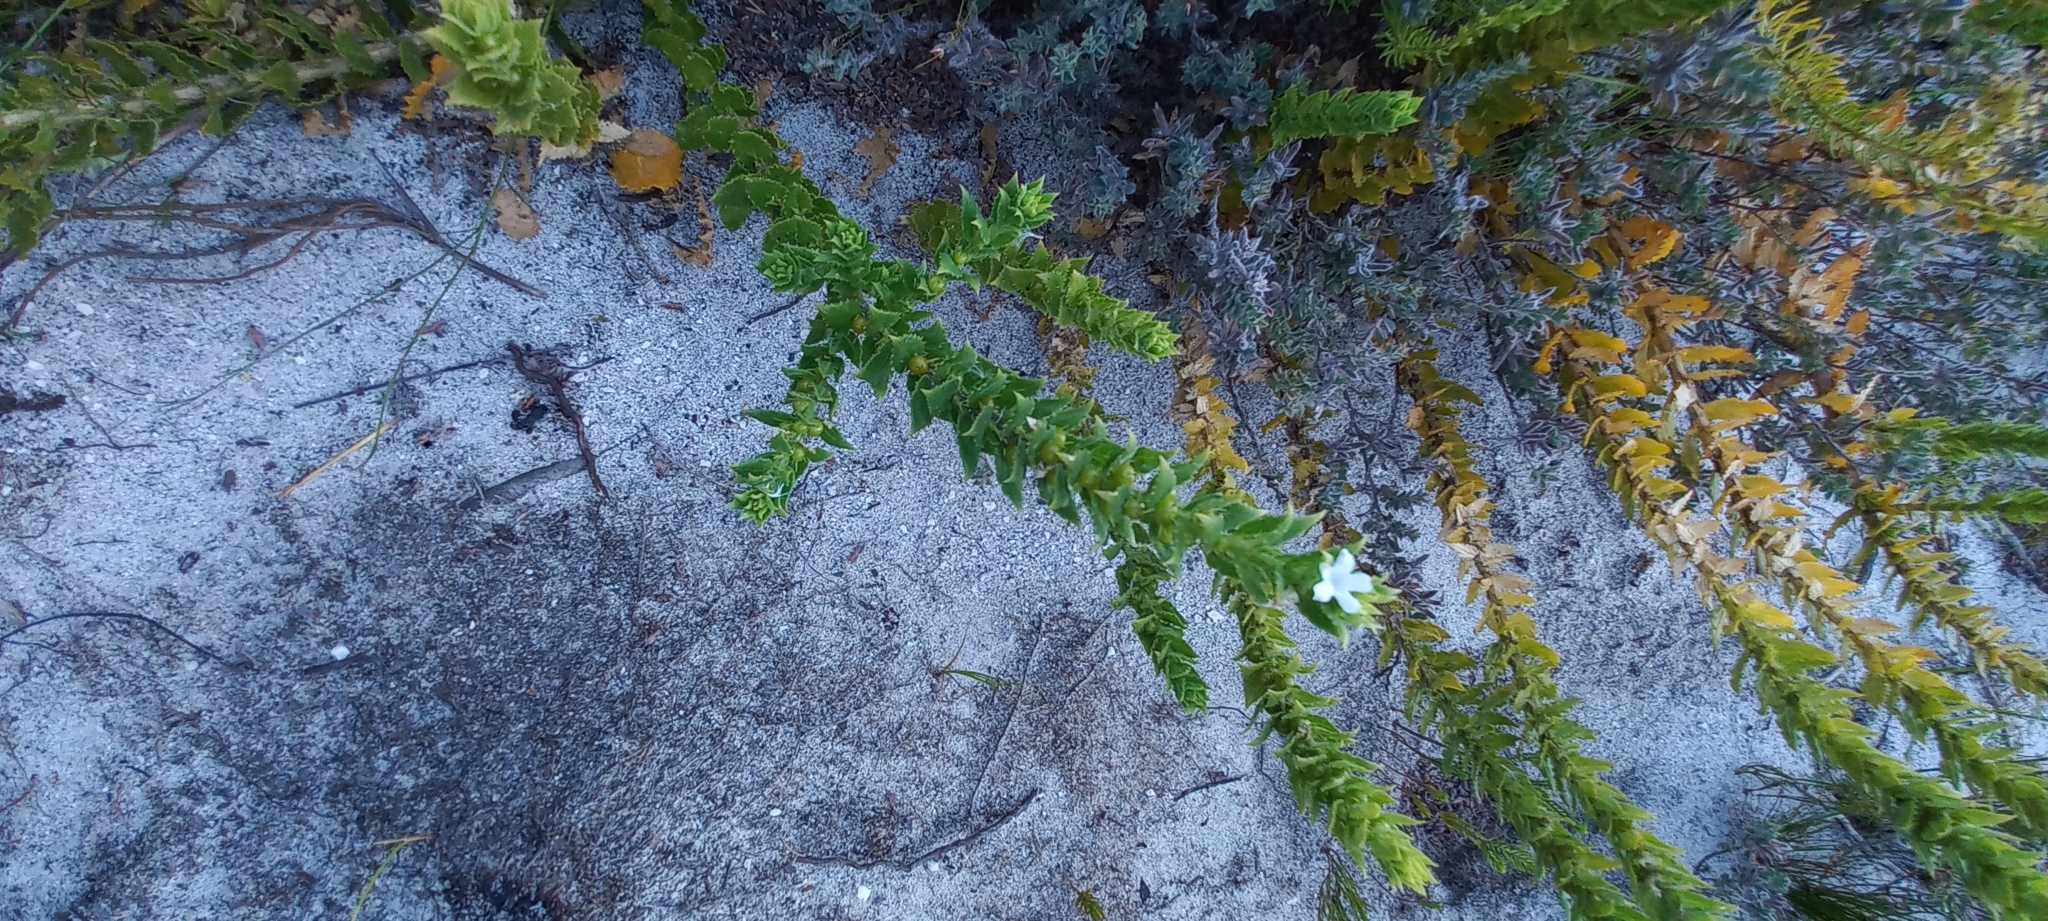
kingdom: Plantae
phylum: Tracheophyta
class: Magnoliopsida
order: Lamiales
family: Scrophulariaceae
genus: Oftia
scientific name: Oftia africana
